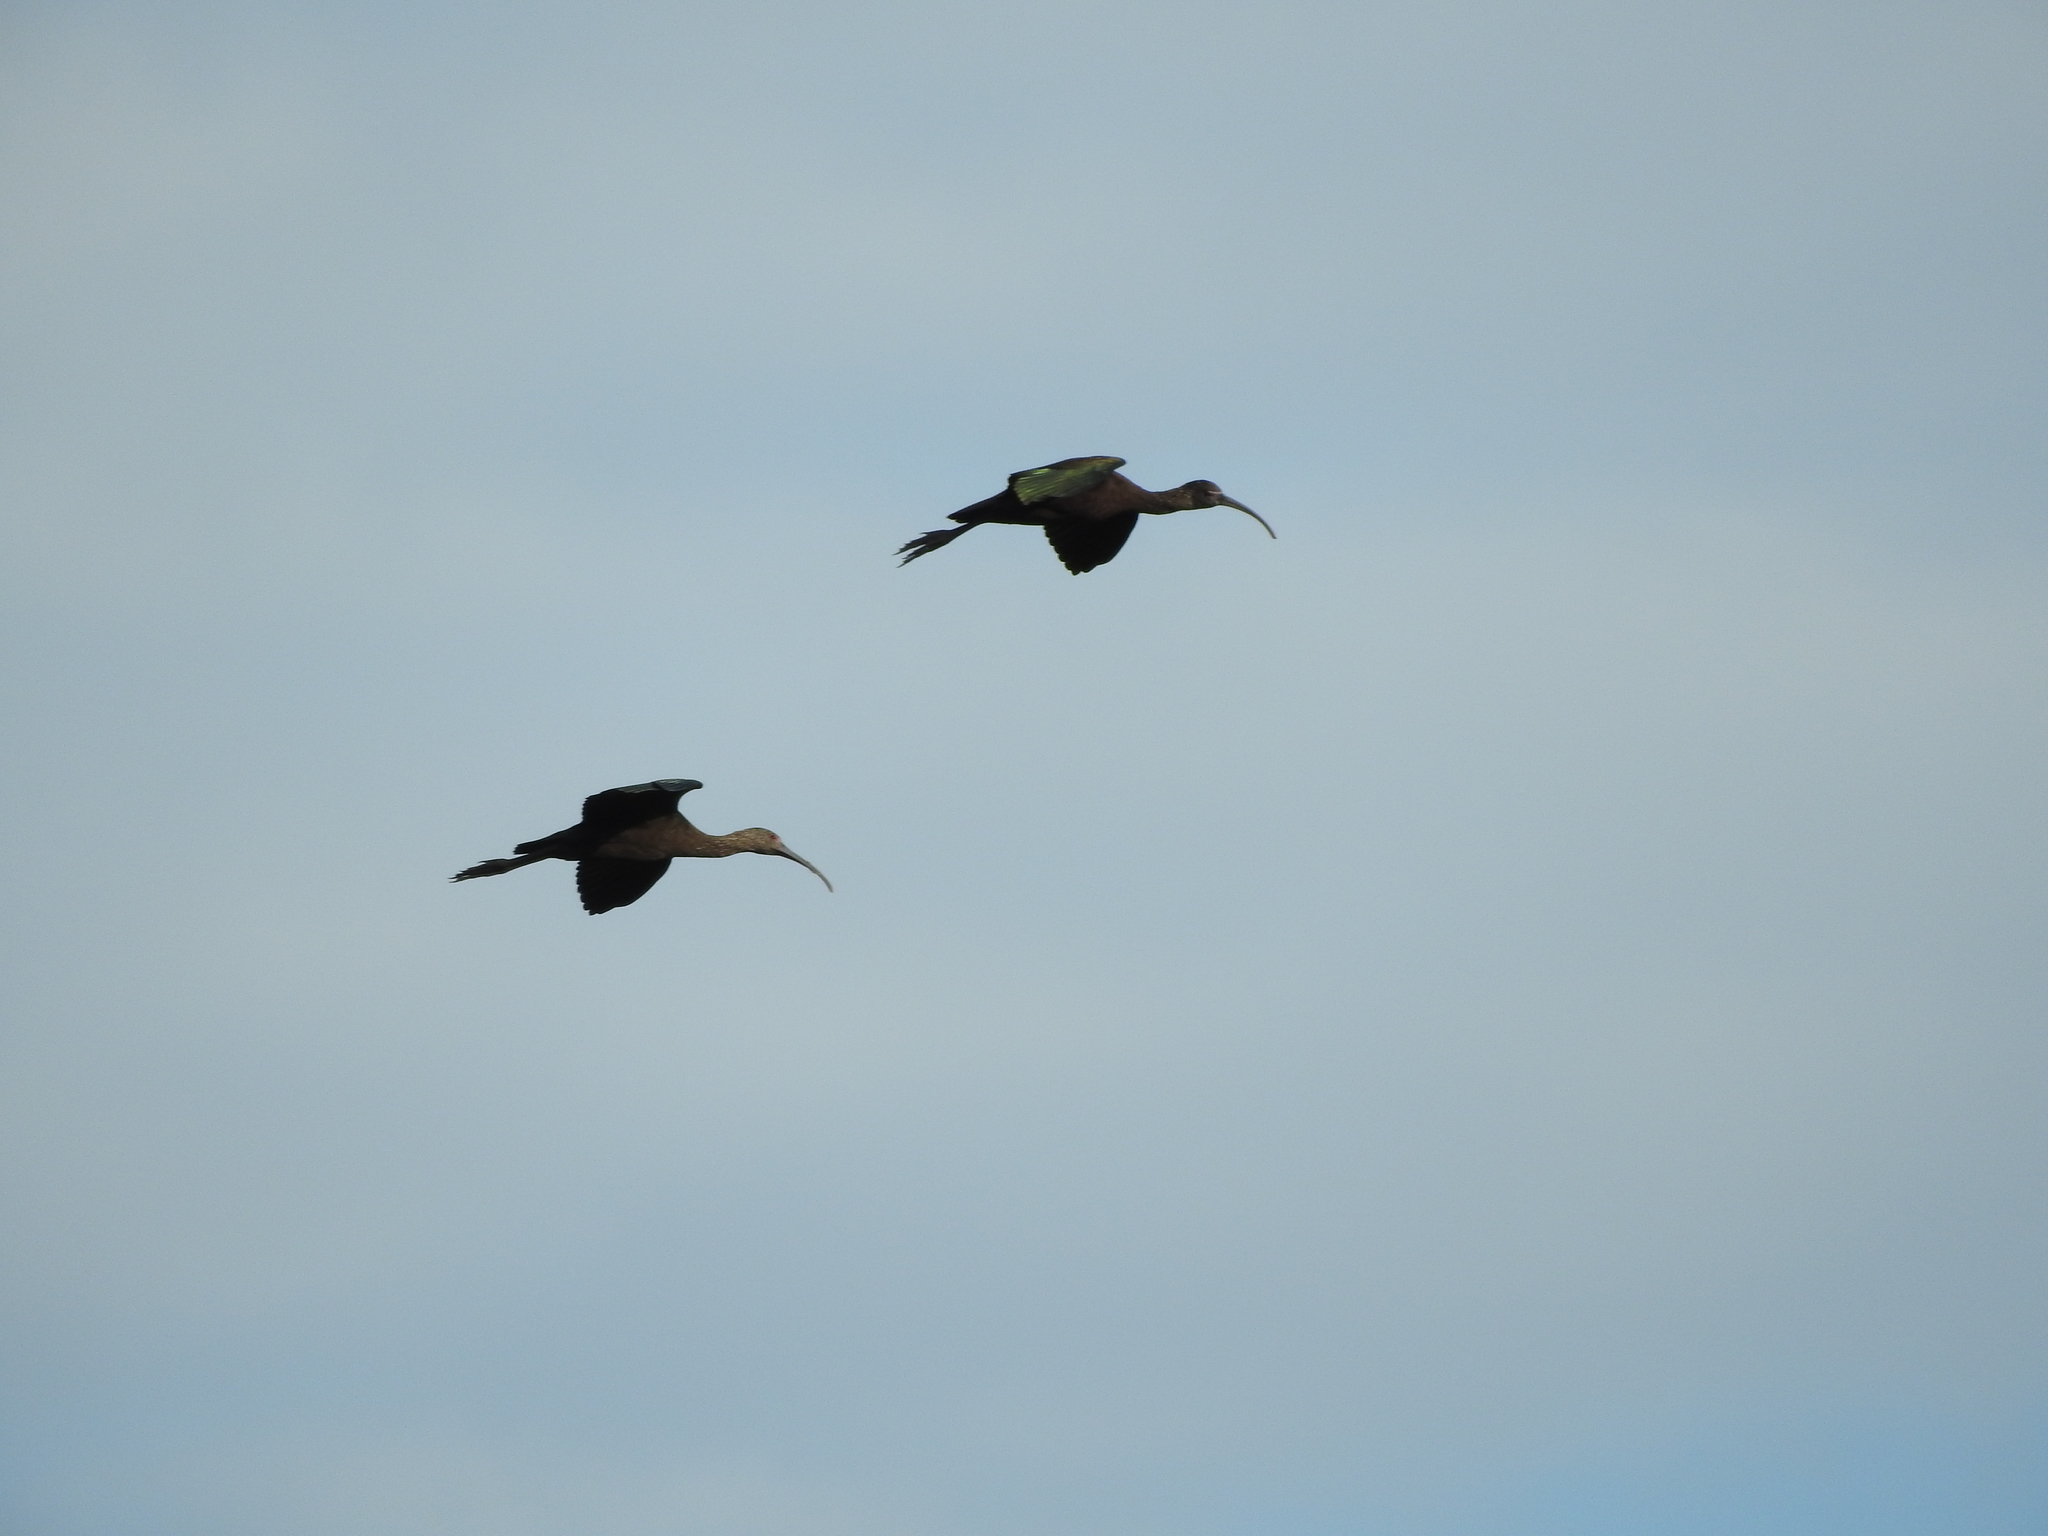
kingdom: Animalia
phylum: Chordata
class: Aves
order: Pelecaniformes
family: Threskiornithidae
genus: Plegadis
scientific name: Plegadis chihi
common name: White-faced ibis
